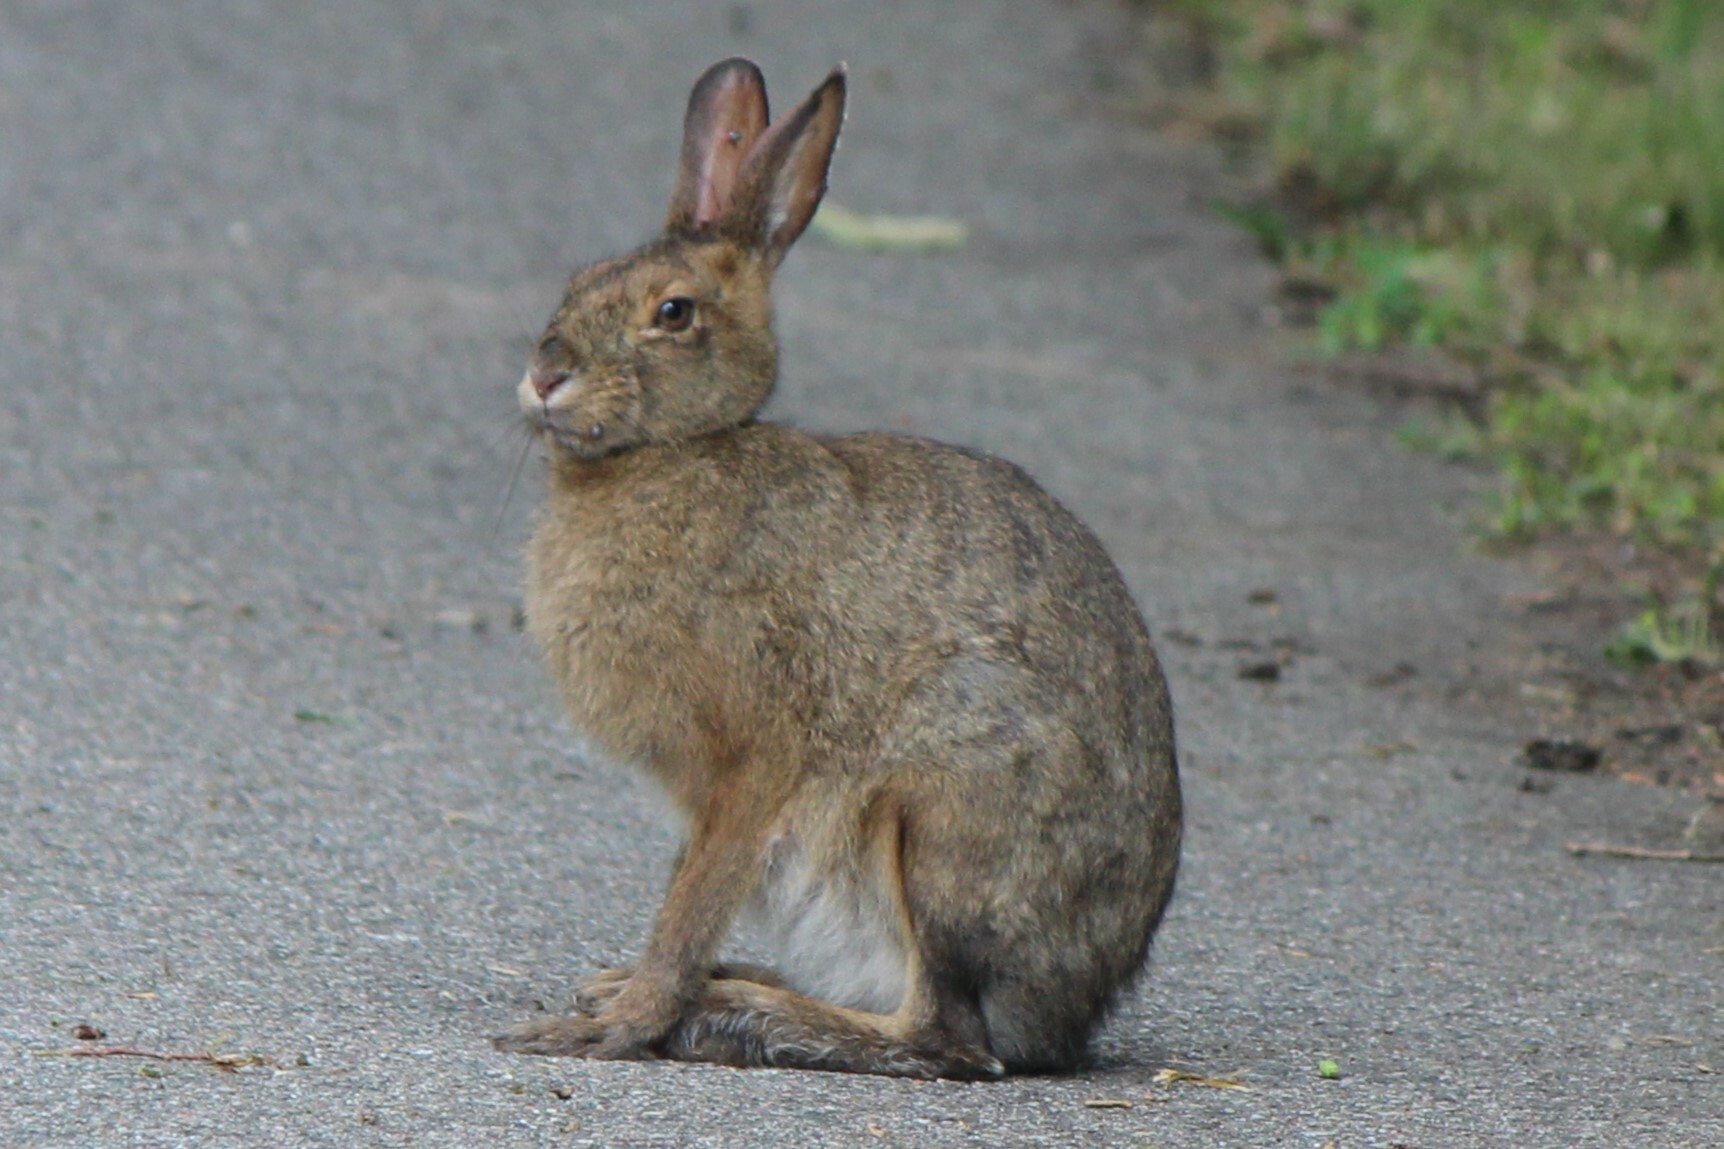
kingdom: Animalia
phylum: Chordata
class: Mammalia
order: Lagomorpha
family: Leporidae
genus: Lepus
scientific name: Lepus americanus
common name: Snowshoe hare
